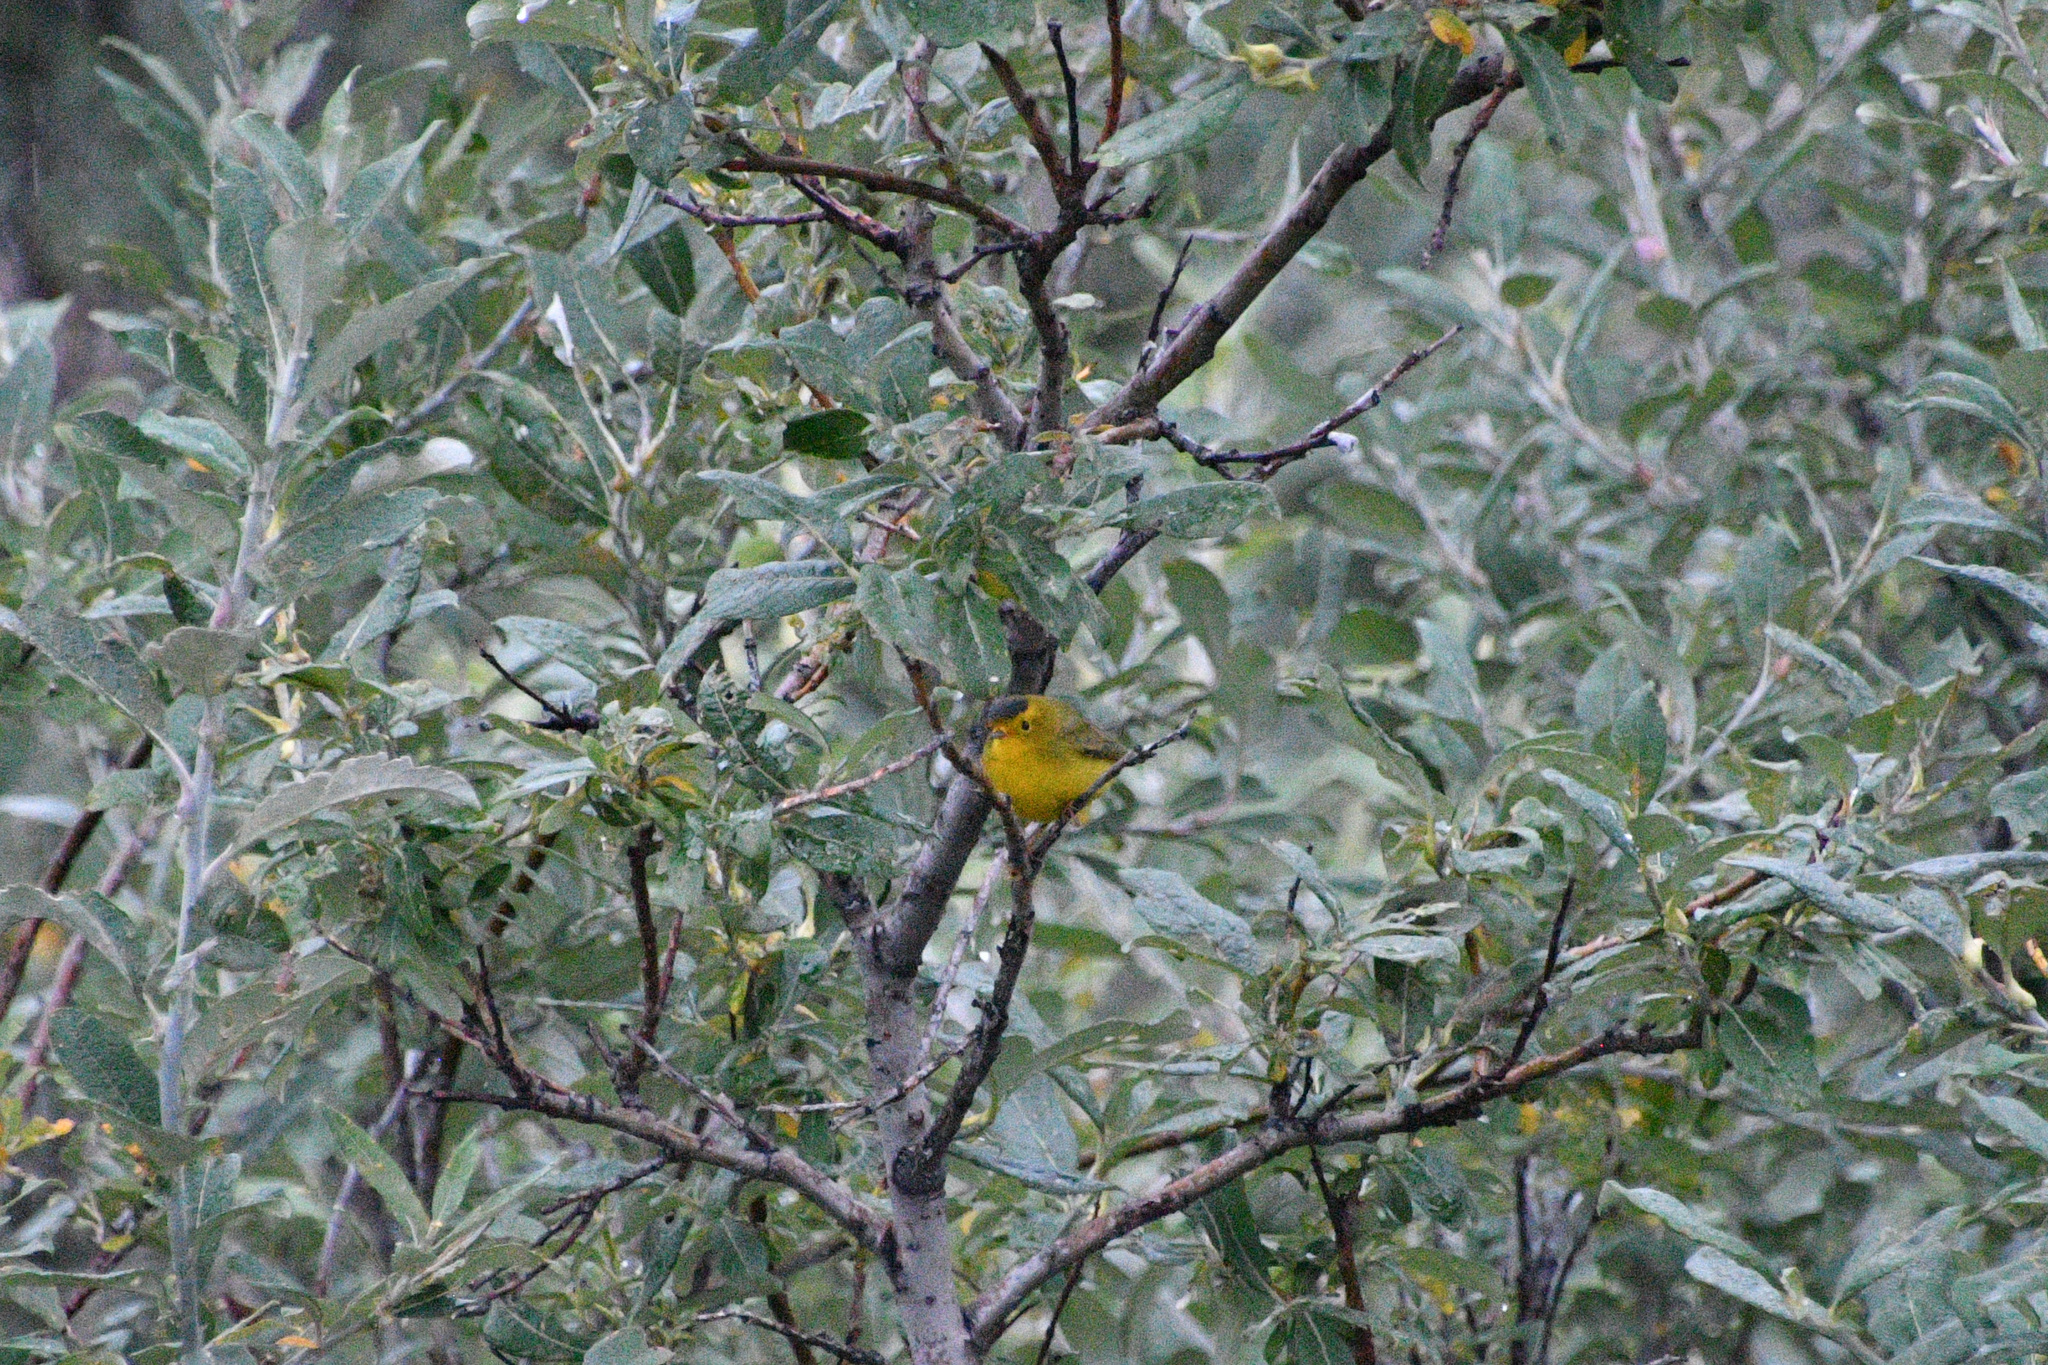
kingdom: Animalia
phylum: Chordata
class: Aves
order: Passeriformes
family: Parulidae
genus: Cardellina
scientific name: Cardellina pusilla
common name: Wilson's warbler
